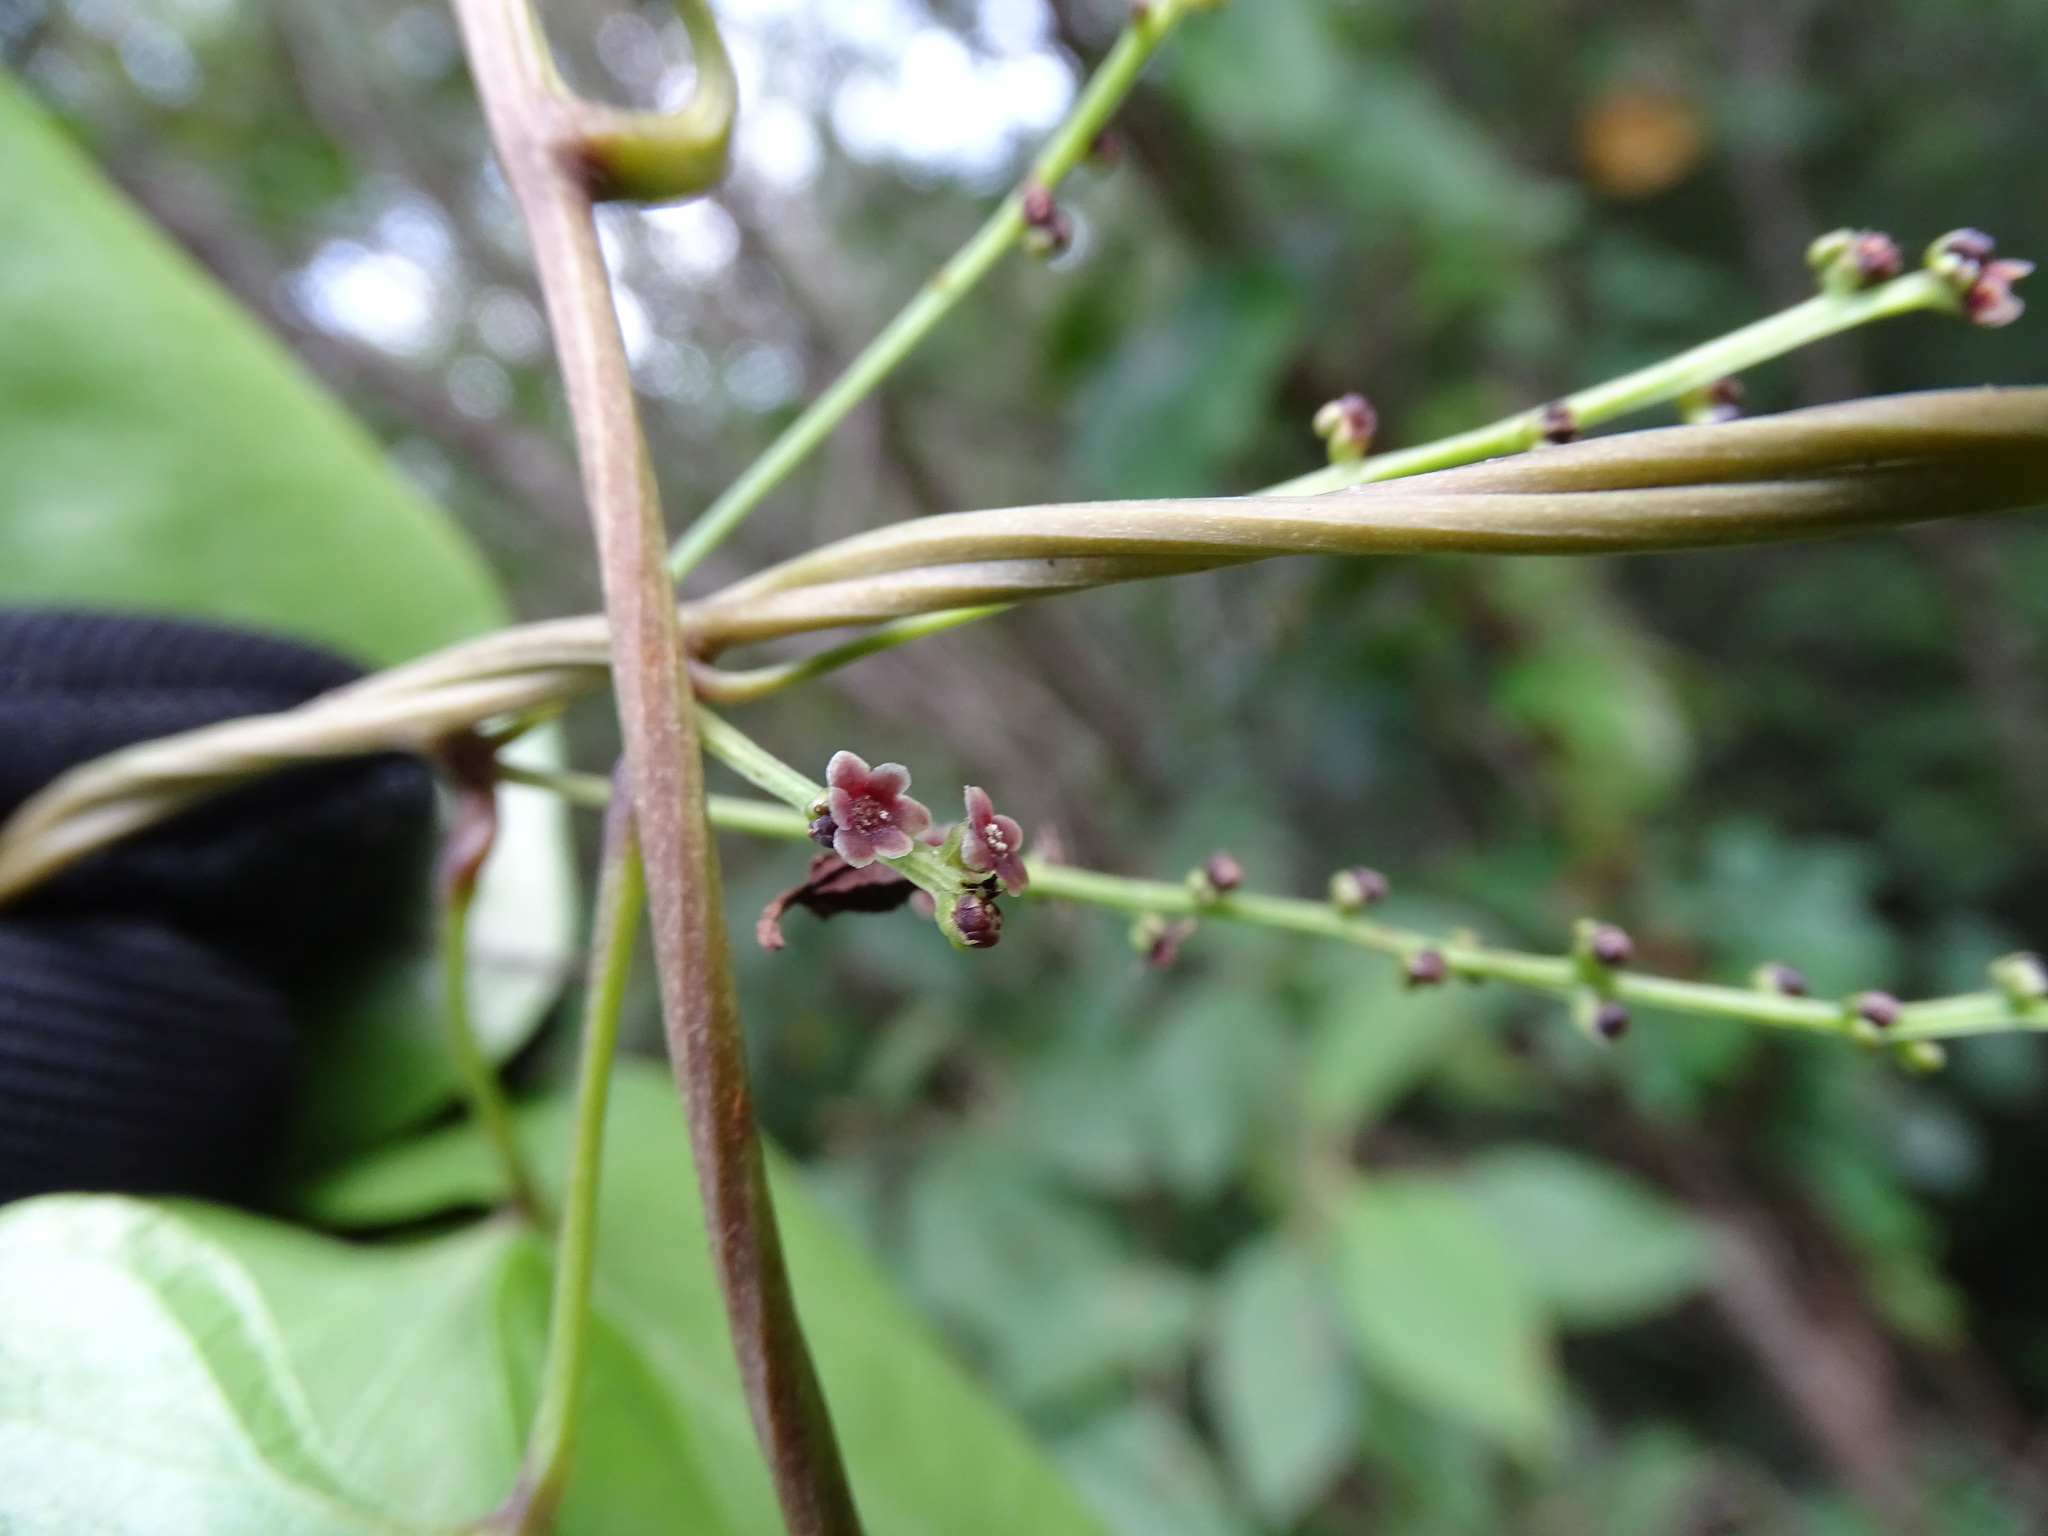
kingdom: Plantae
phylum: Tracheophyta
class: Liliopsida
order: Dioscoreales
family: Dioscoreaceae
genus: Dioscorea
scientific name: Dioscorea floribunda
